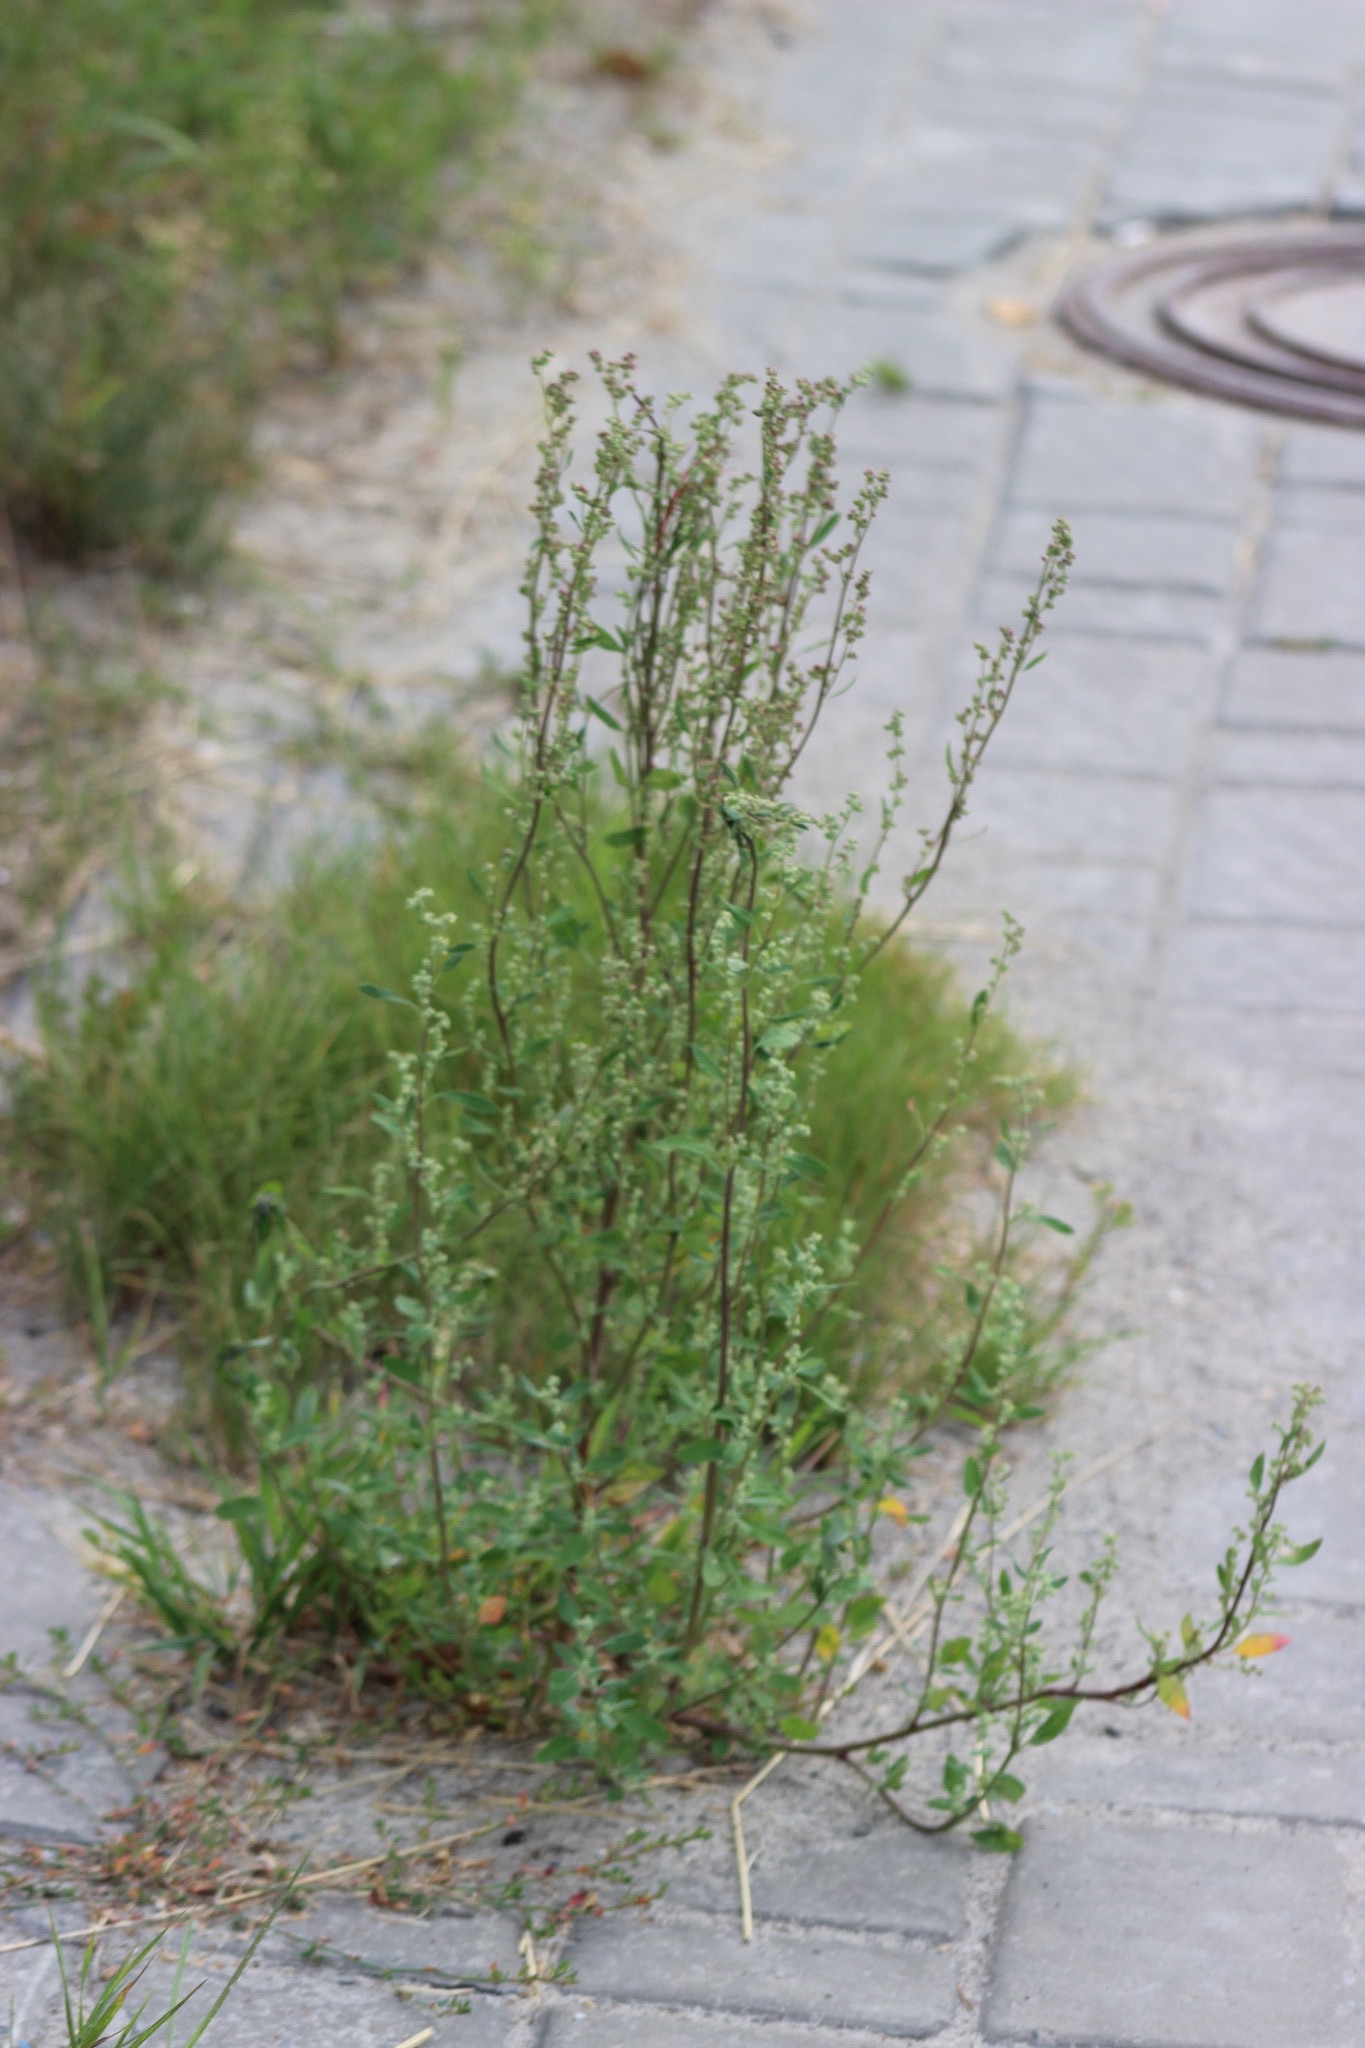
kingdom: Plantae
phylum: Tracheophyta
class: Magnoliopsida
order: Caryophyllales
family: Amaranthaceae
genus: Chenopodium
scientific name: Chenopodium album
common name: Fat-hen
